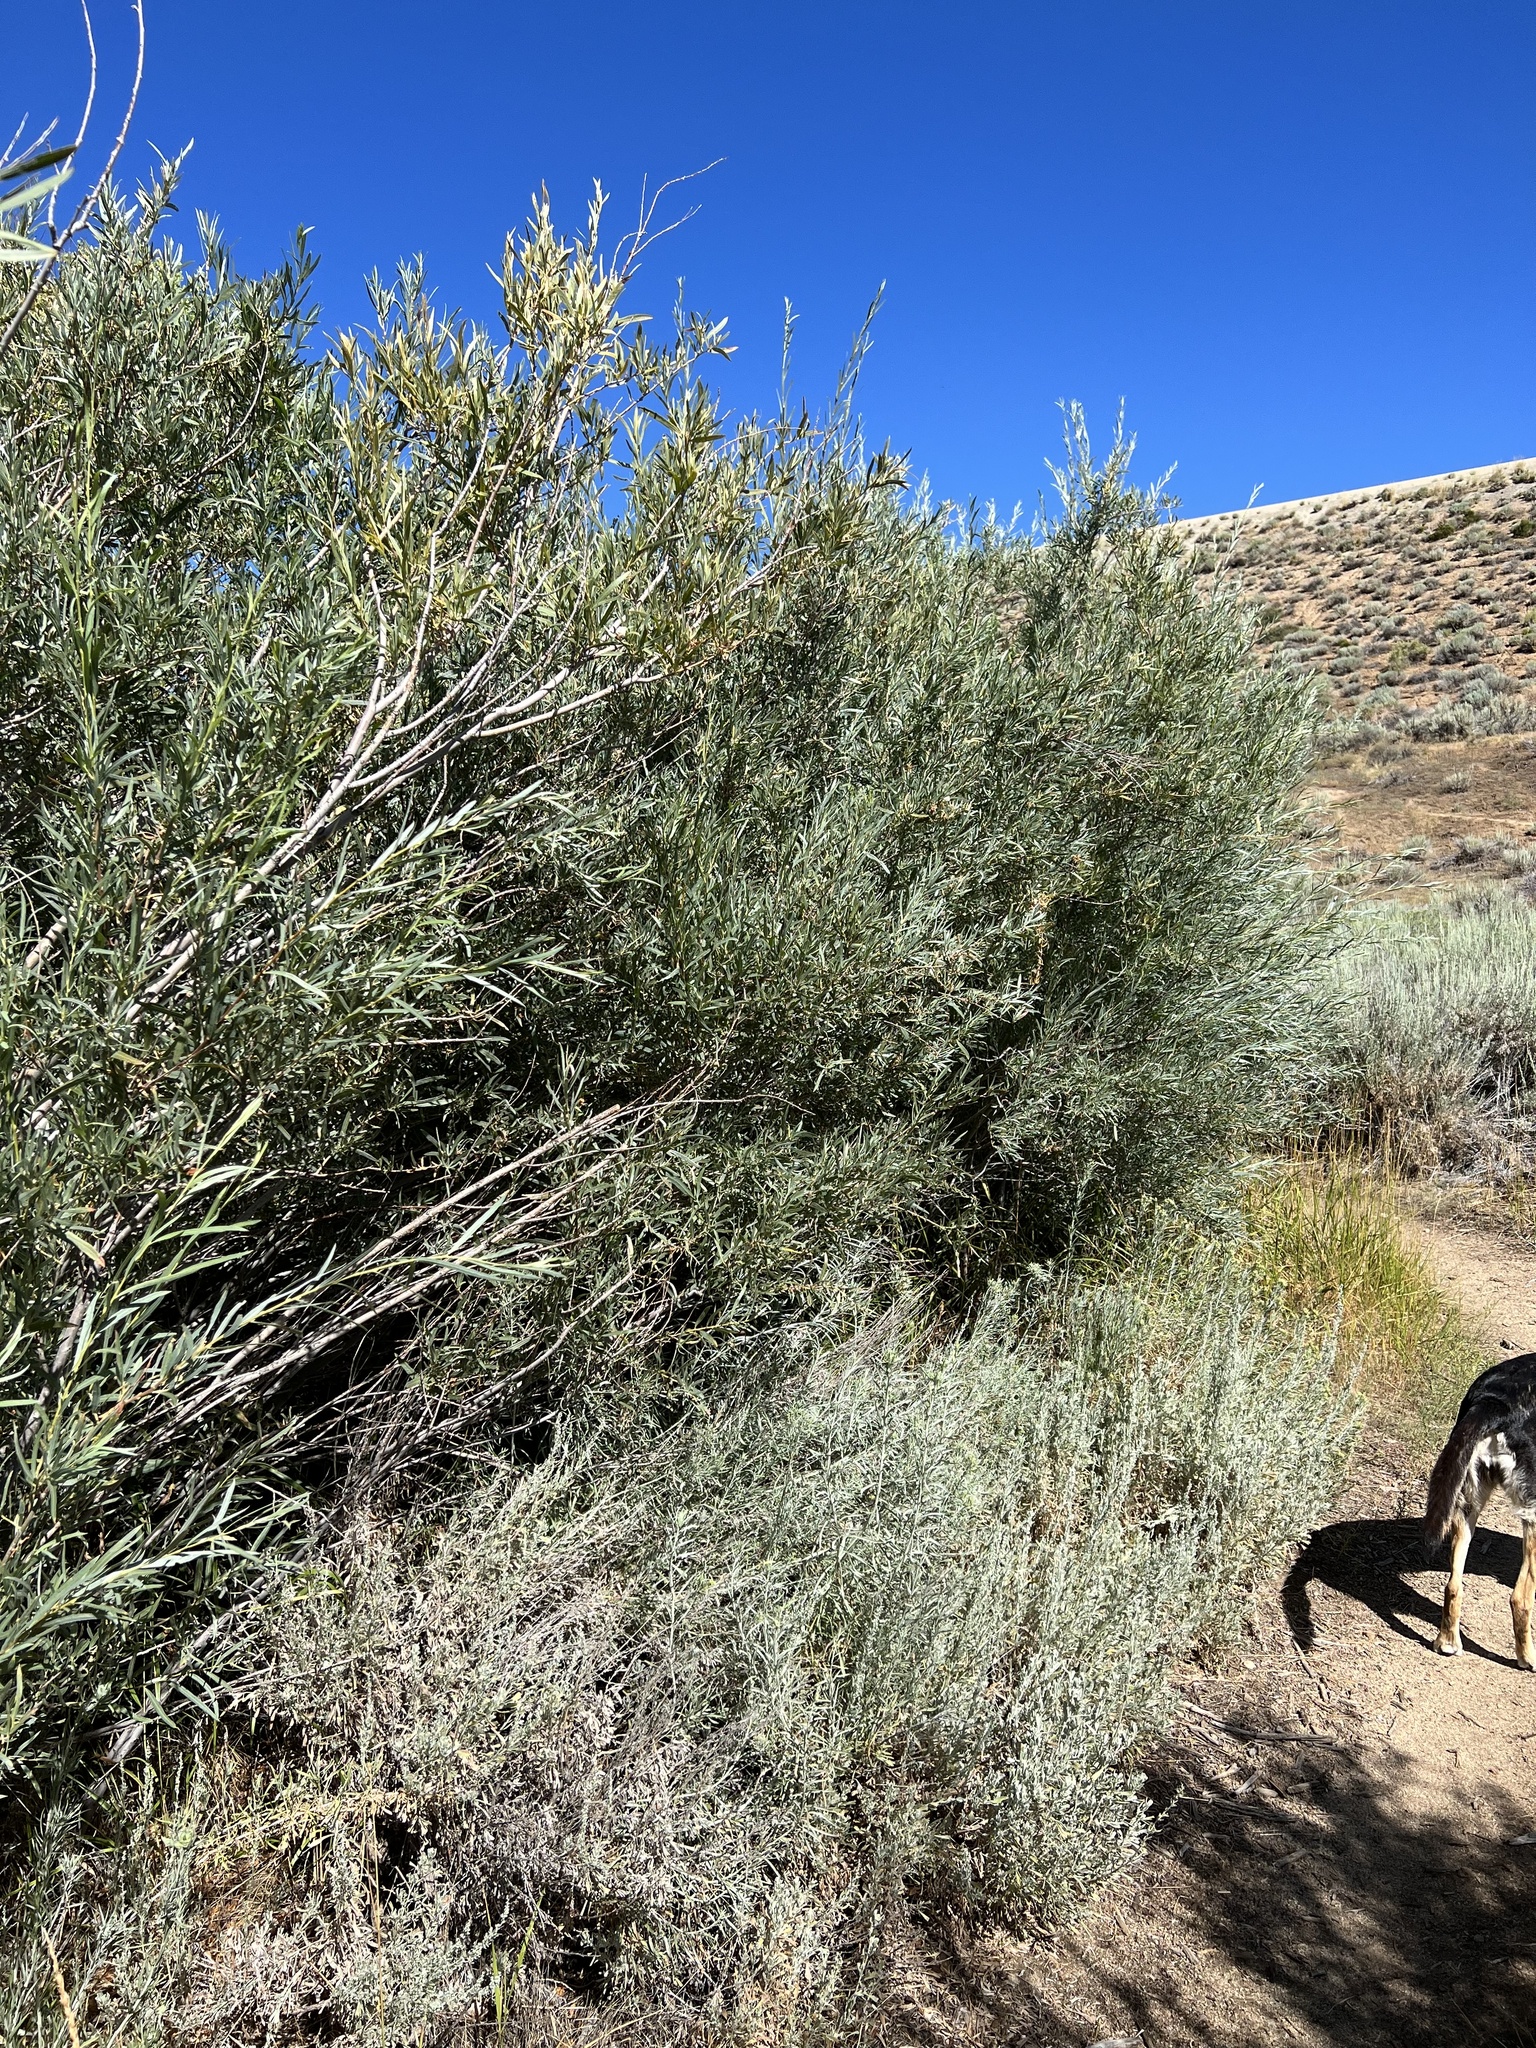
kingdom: Plantae
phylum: Tracheophyta
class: Magnoliopsida
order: Malpighiales
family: Salicaceae
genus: Salix
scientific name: Salix exigua
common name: Coyote willow
